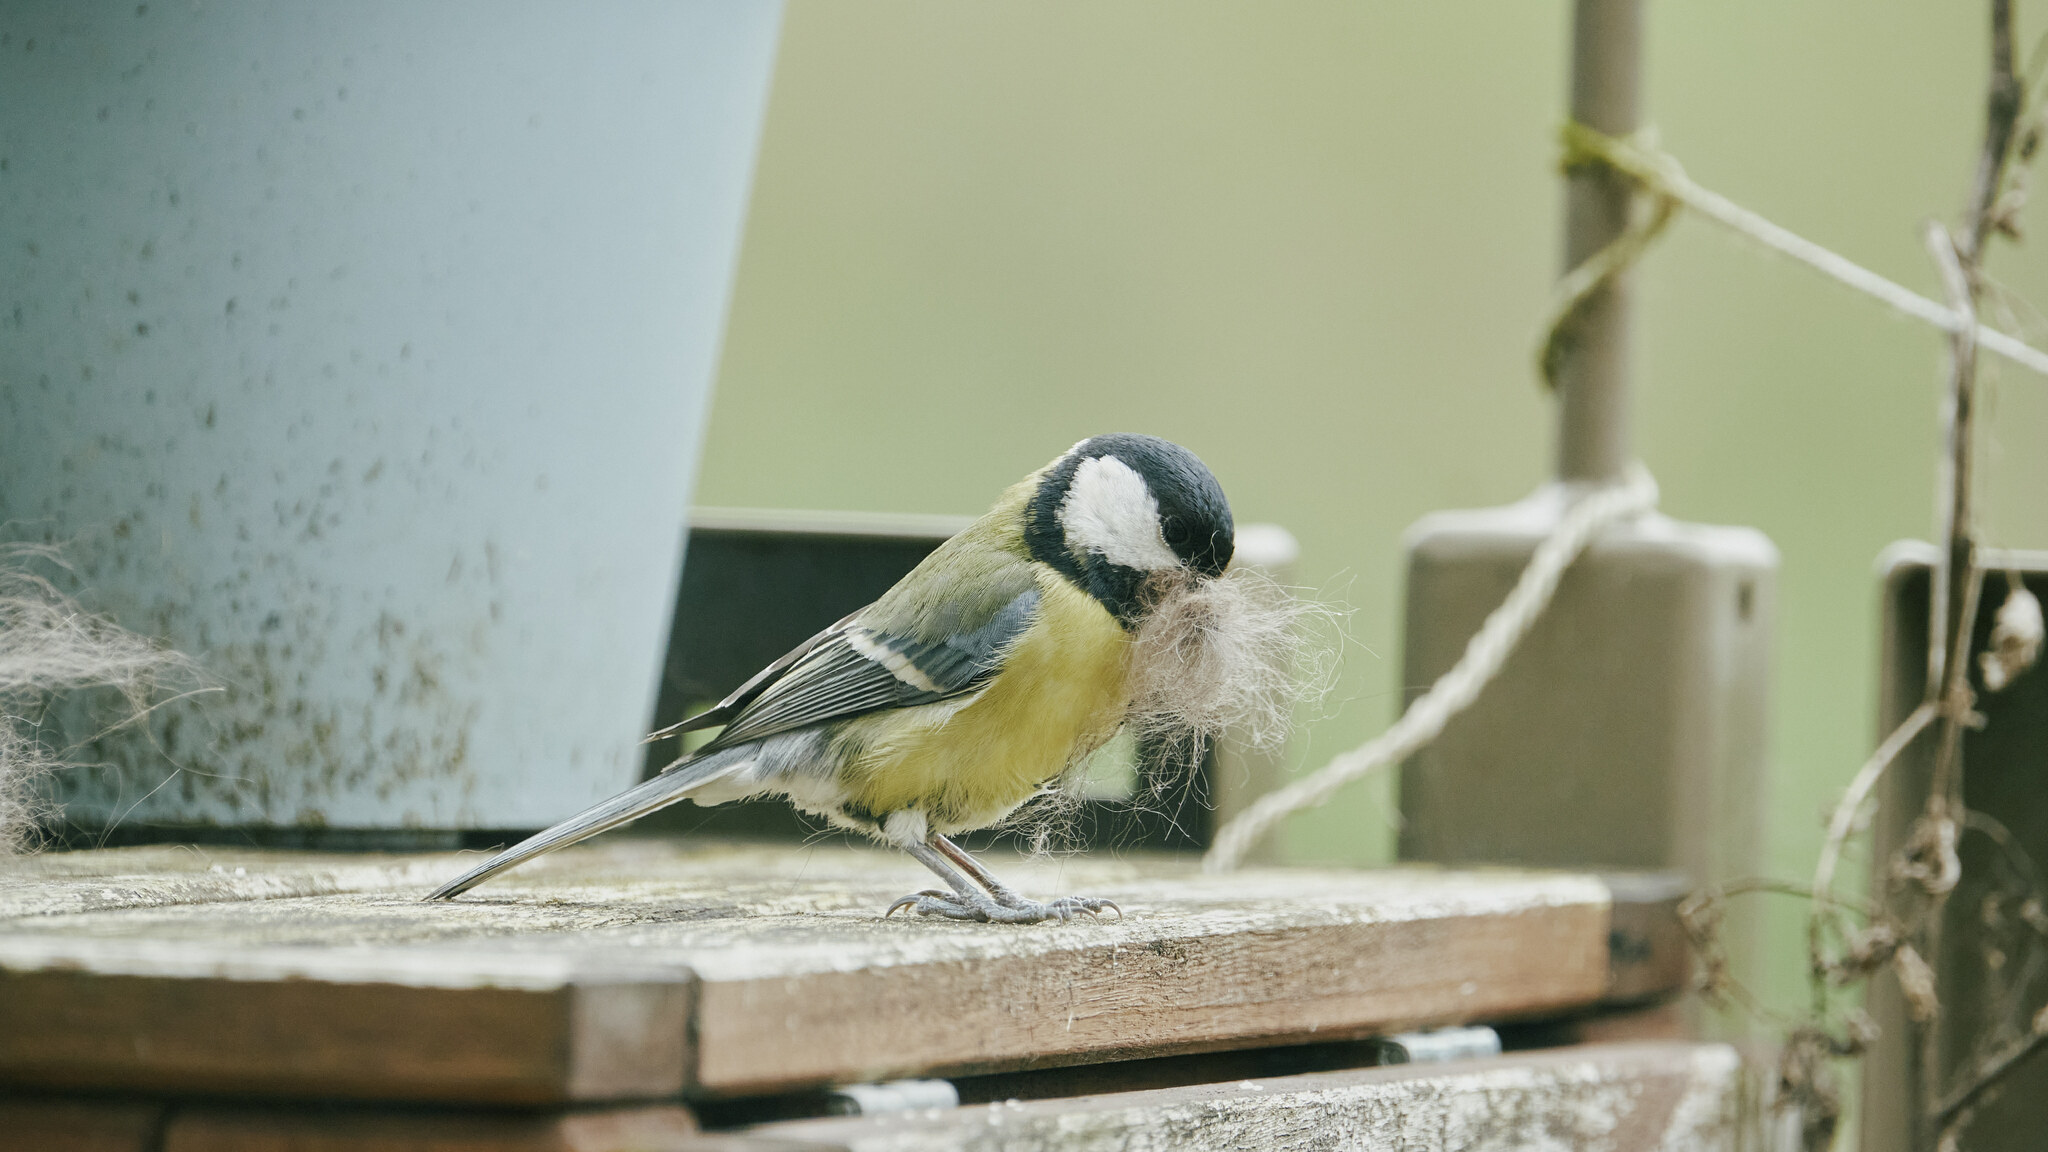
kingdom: Animalia
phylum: Chordata
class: Aves
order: Passeriformes
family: Paridae
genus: Parus
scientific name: Parus major
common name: Great tit
